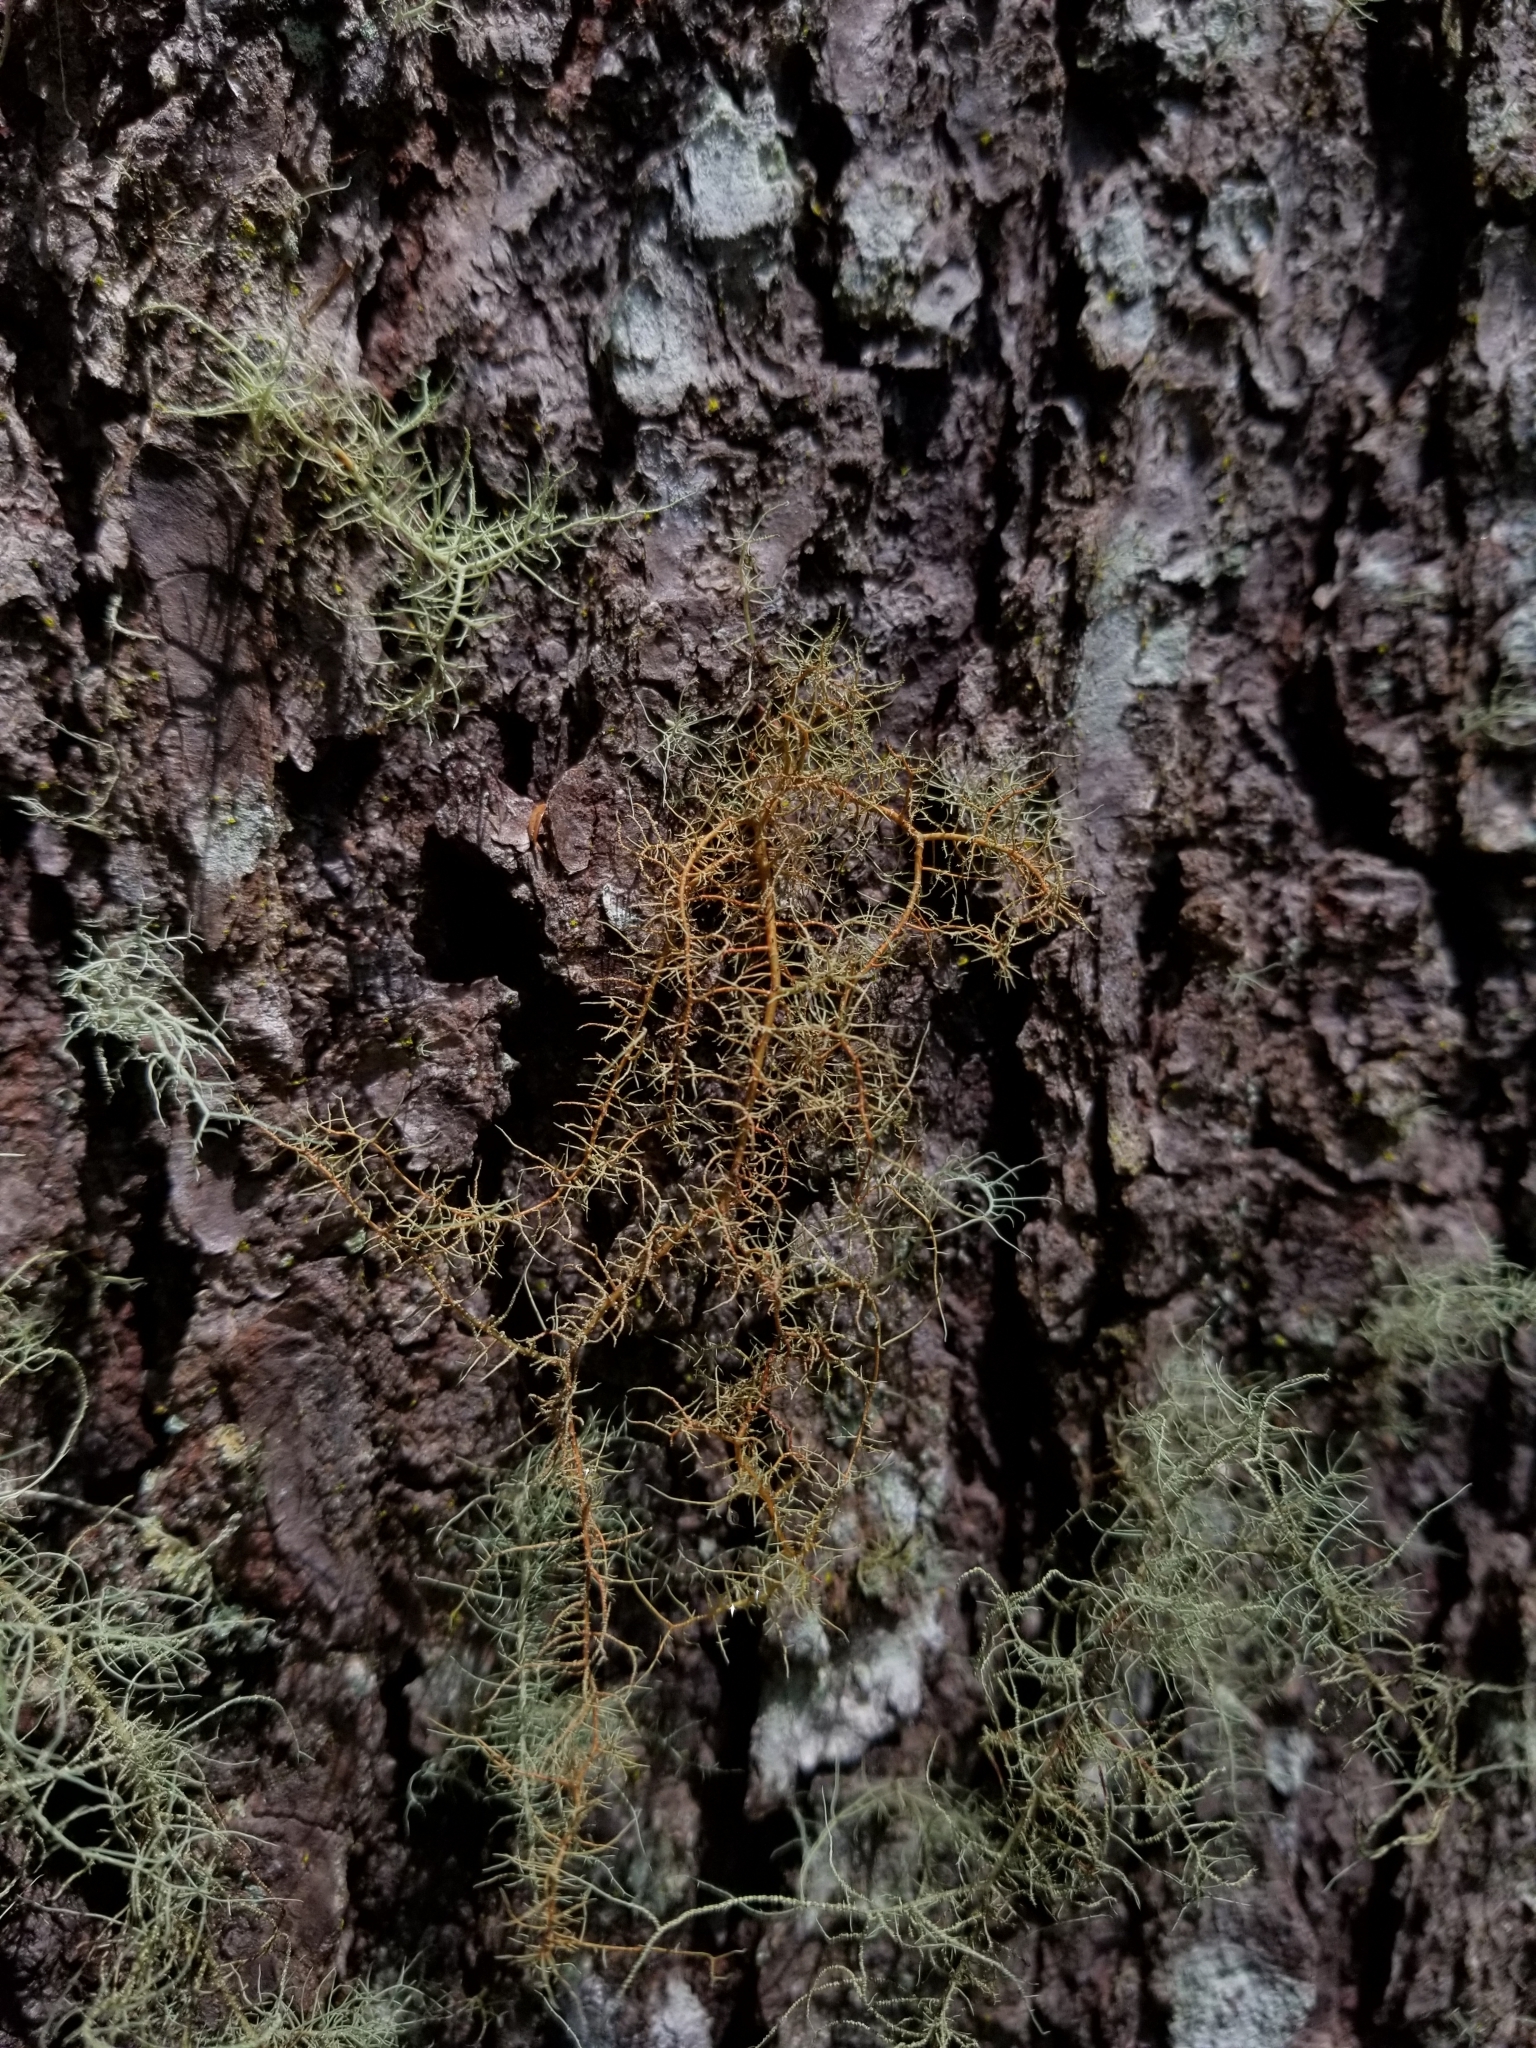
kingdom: Fungi
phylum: Ascomycota
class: Lecanoromycetes
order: Lecanorales
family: Parmeliaceae
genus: Usnea
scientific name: Usnea rubicunda
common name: Red beard lichen
